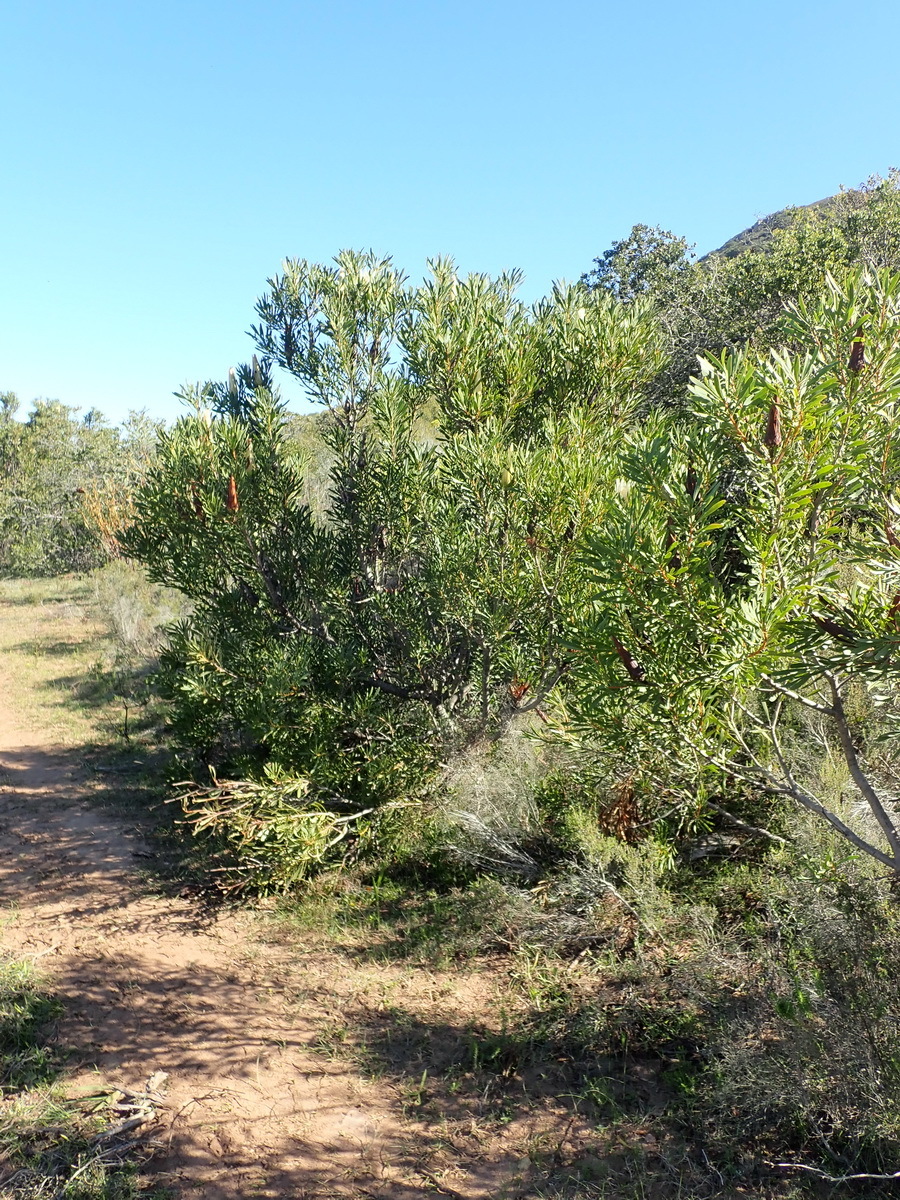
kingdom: Plantae
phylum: Tracheophyta
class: Magnoliopsida
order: Proteales
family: Proteaceae
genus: Protea
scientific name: Protea repens
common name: Sugarbush
